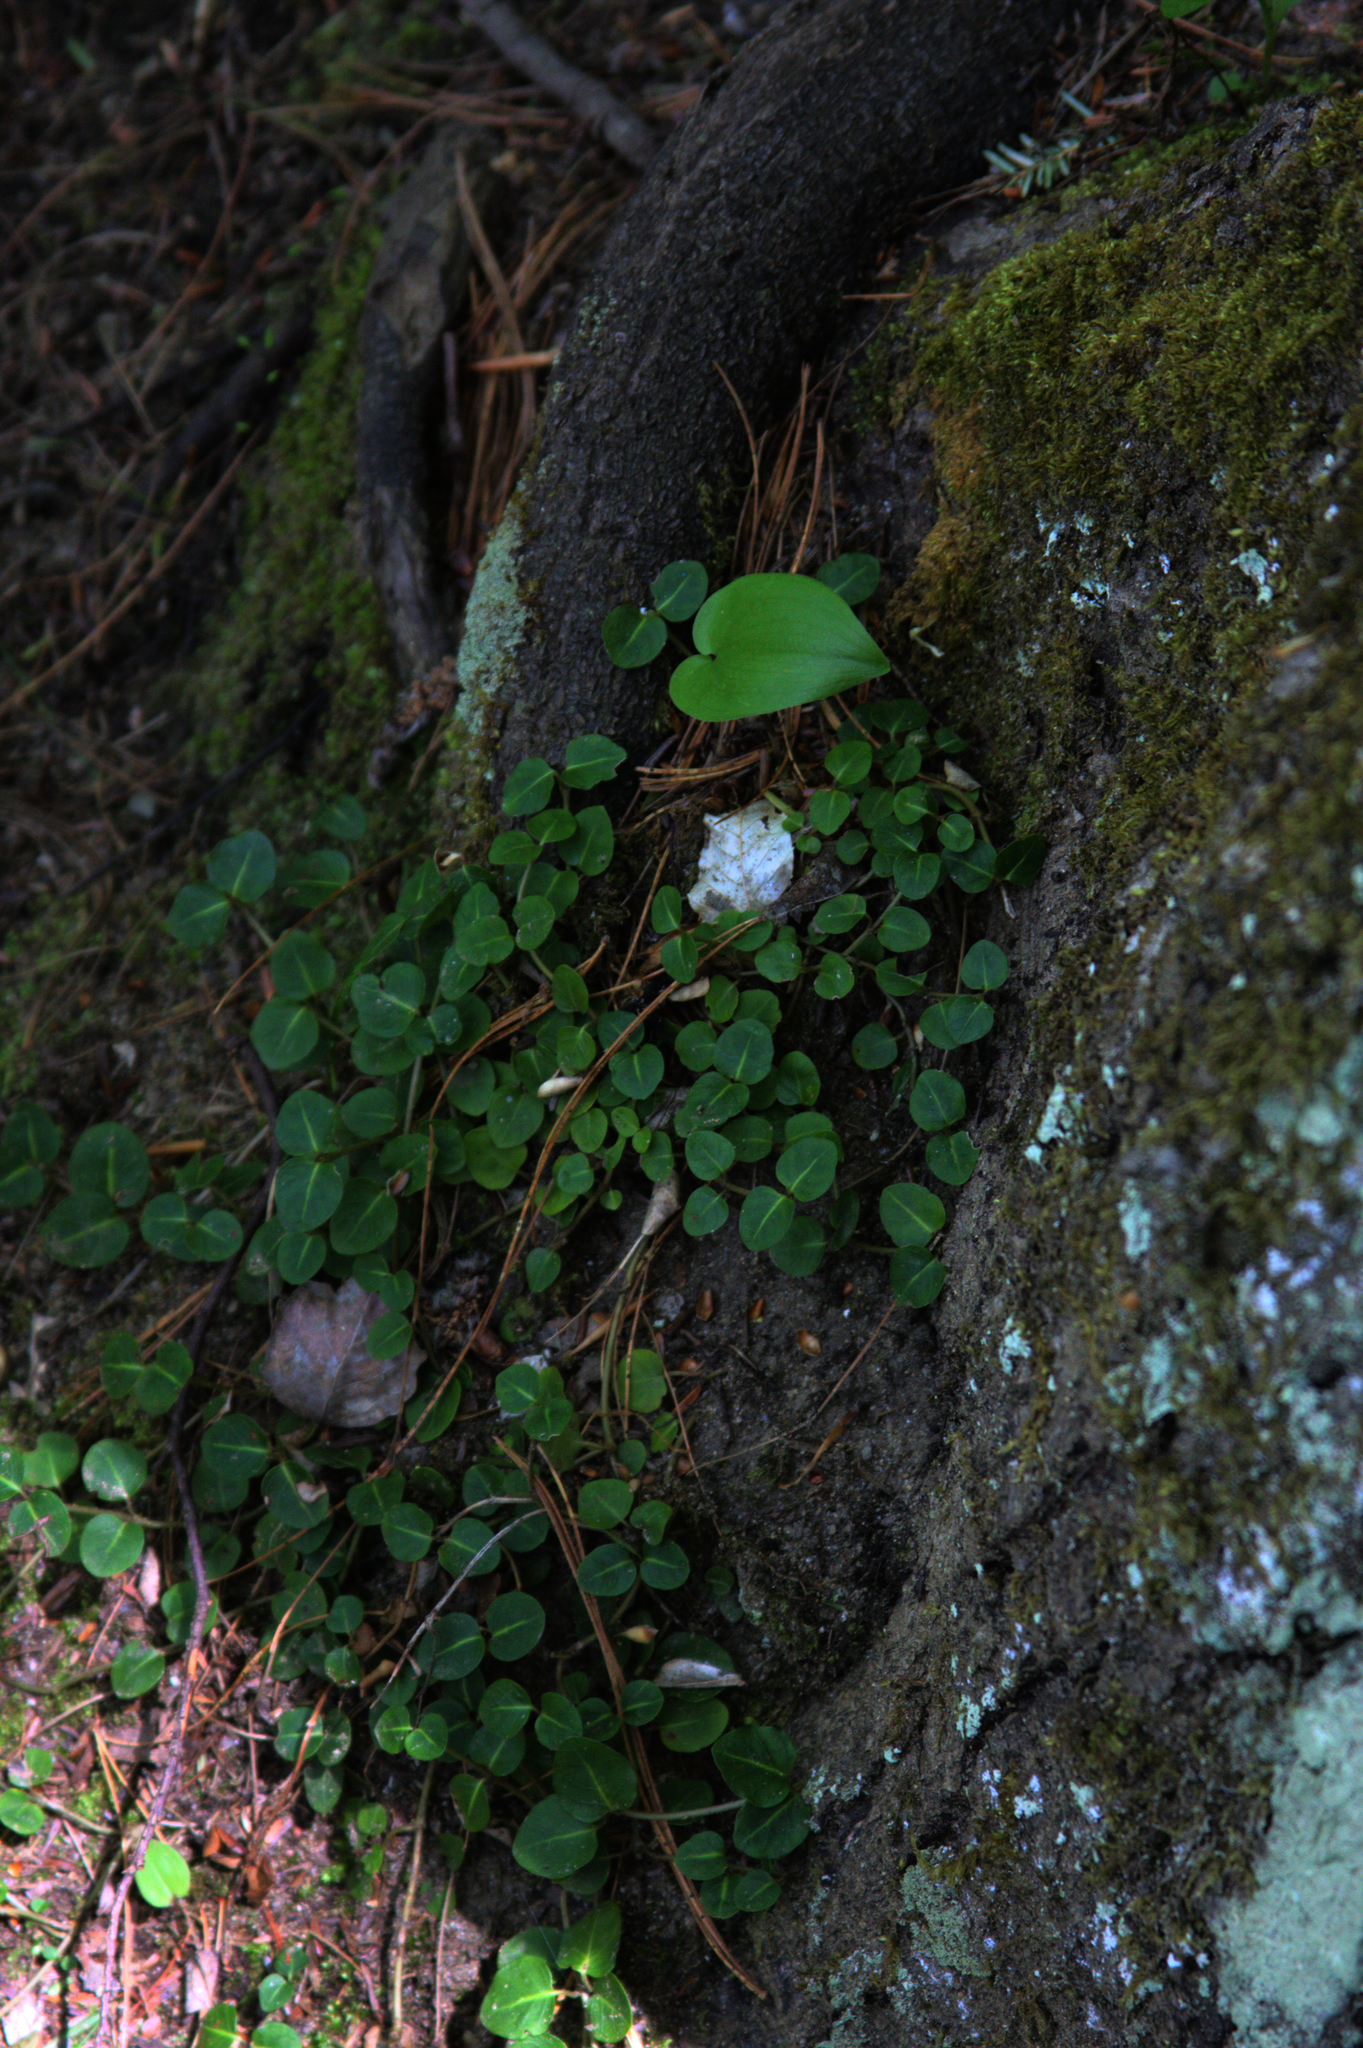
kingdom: Plantae
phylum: Tracheophyta
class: Magnoliopsida
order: Gentianales
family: Rubiaceae
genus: Mitchella
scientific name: Mitchella repens
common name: Partridge-berry
